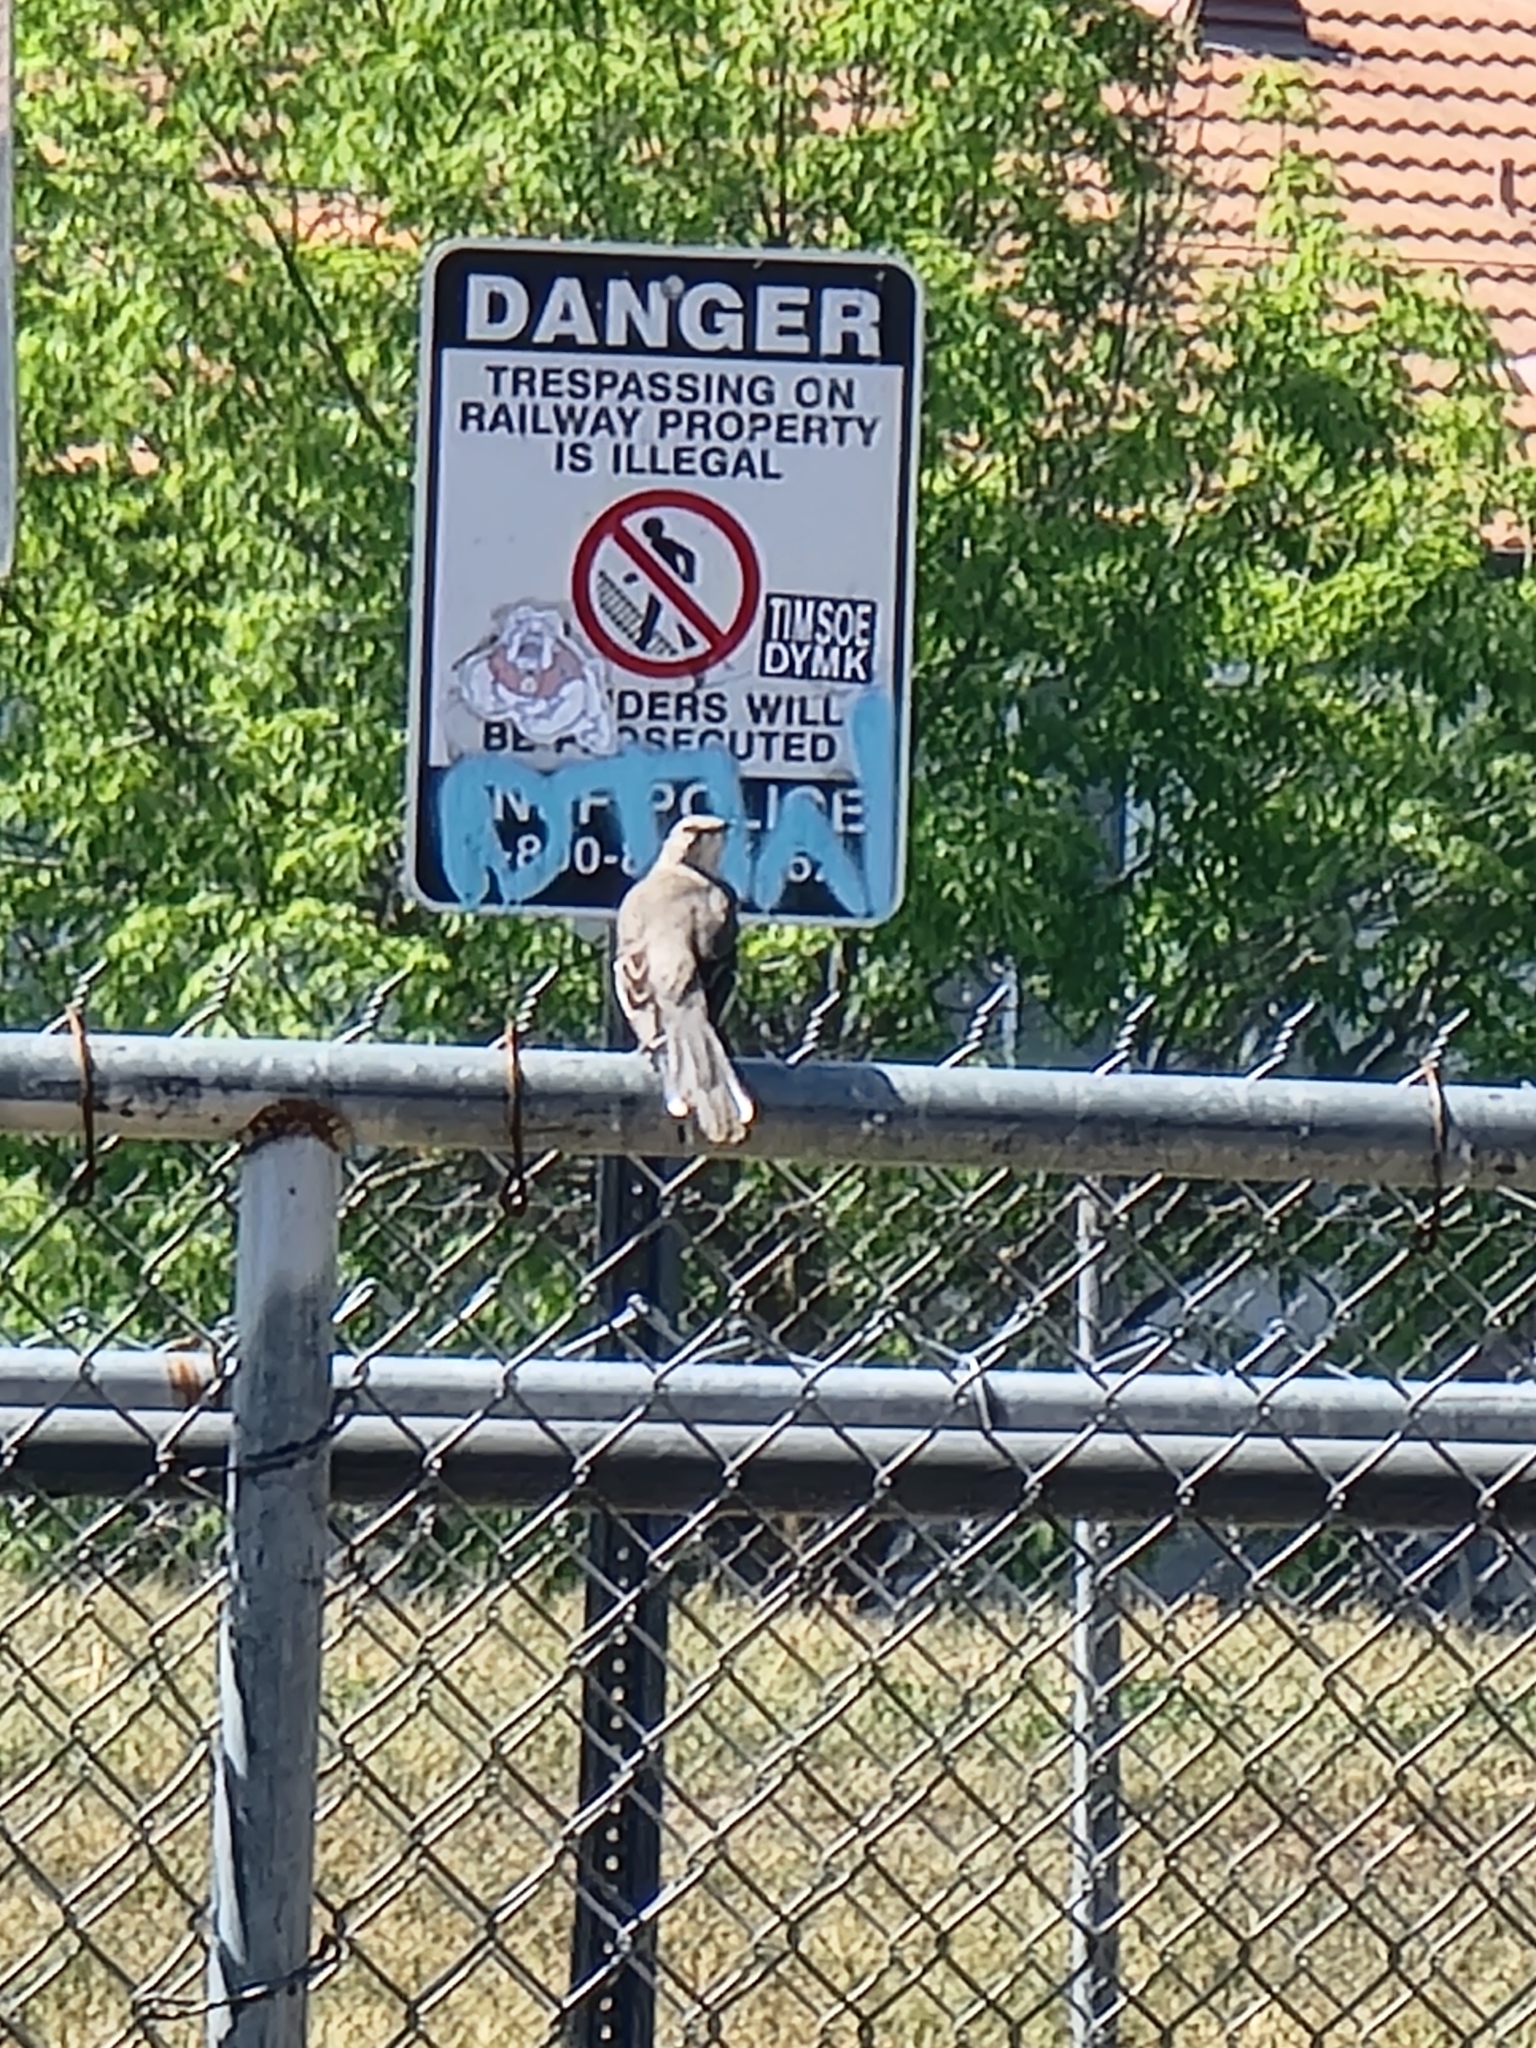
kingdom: Animalia
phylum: Chordata
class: Aves
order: Passeriformes
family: Mimidae
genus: Mimus
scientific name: Mimus polyglottos
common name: Northern mockingbird
